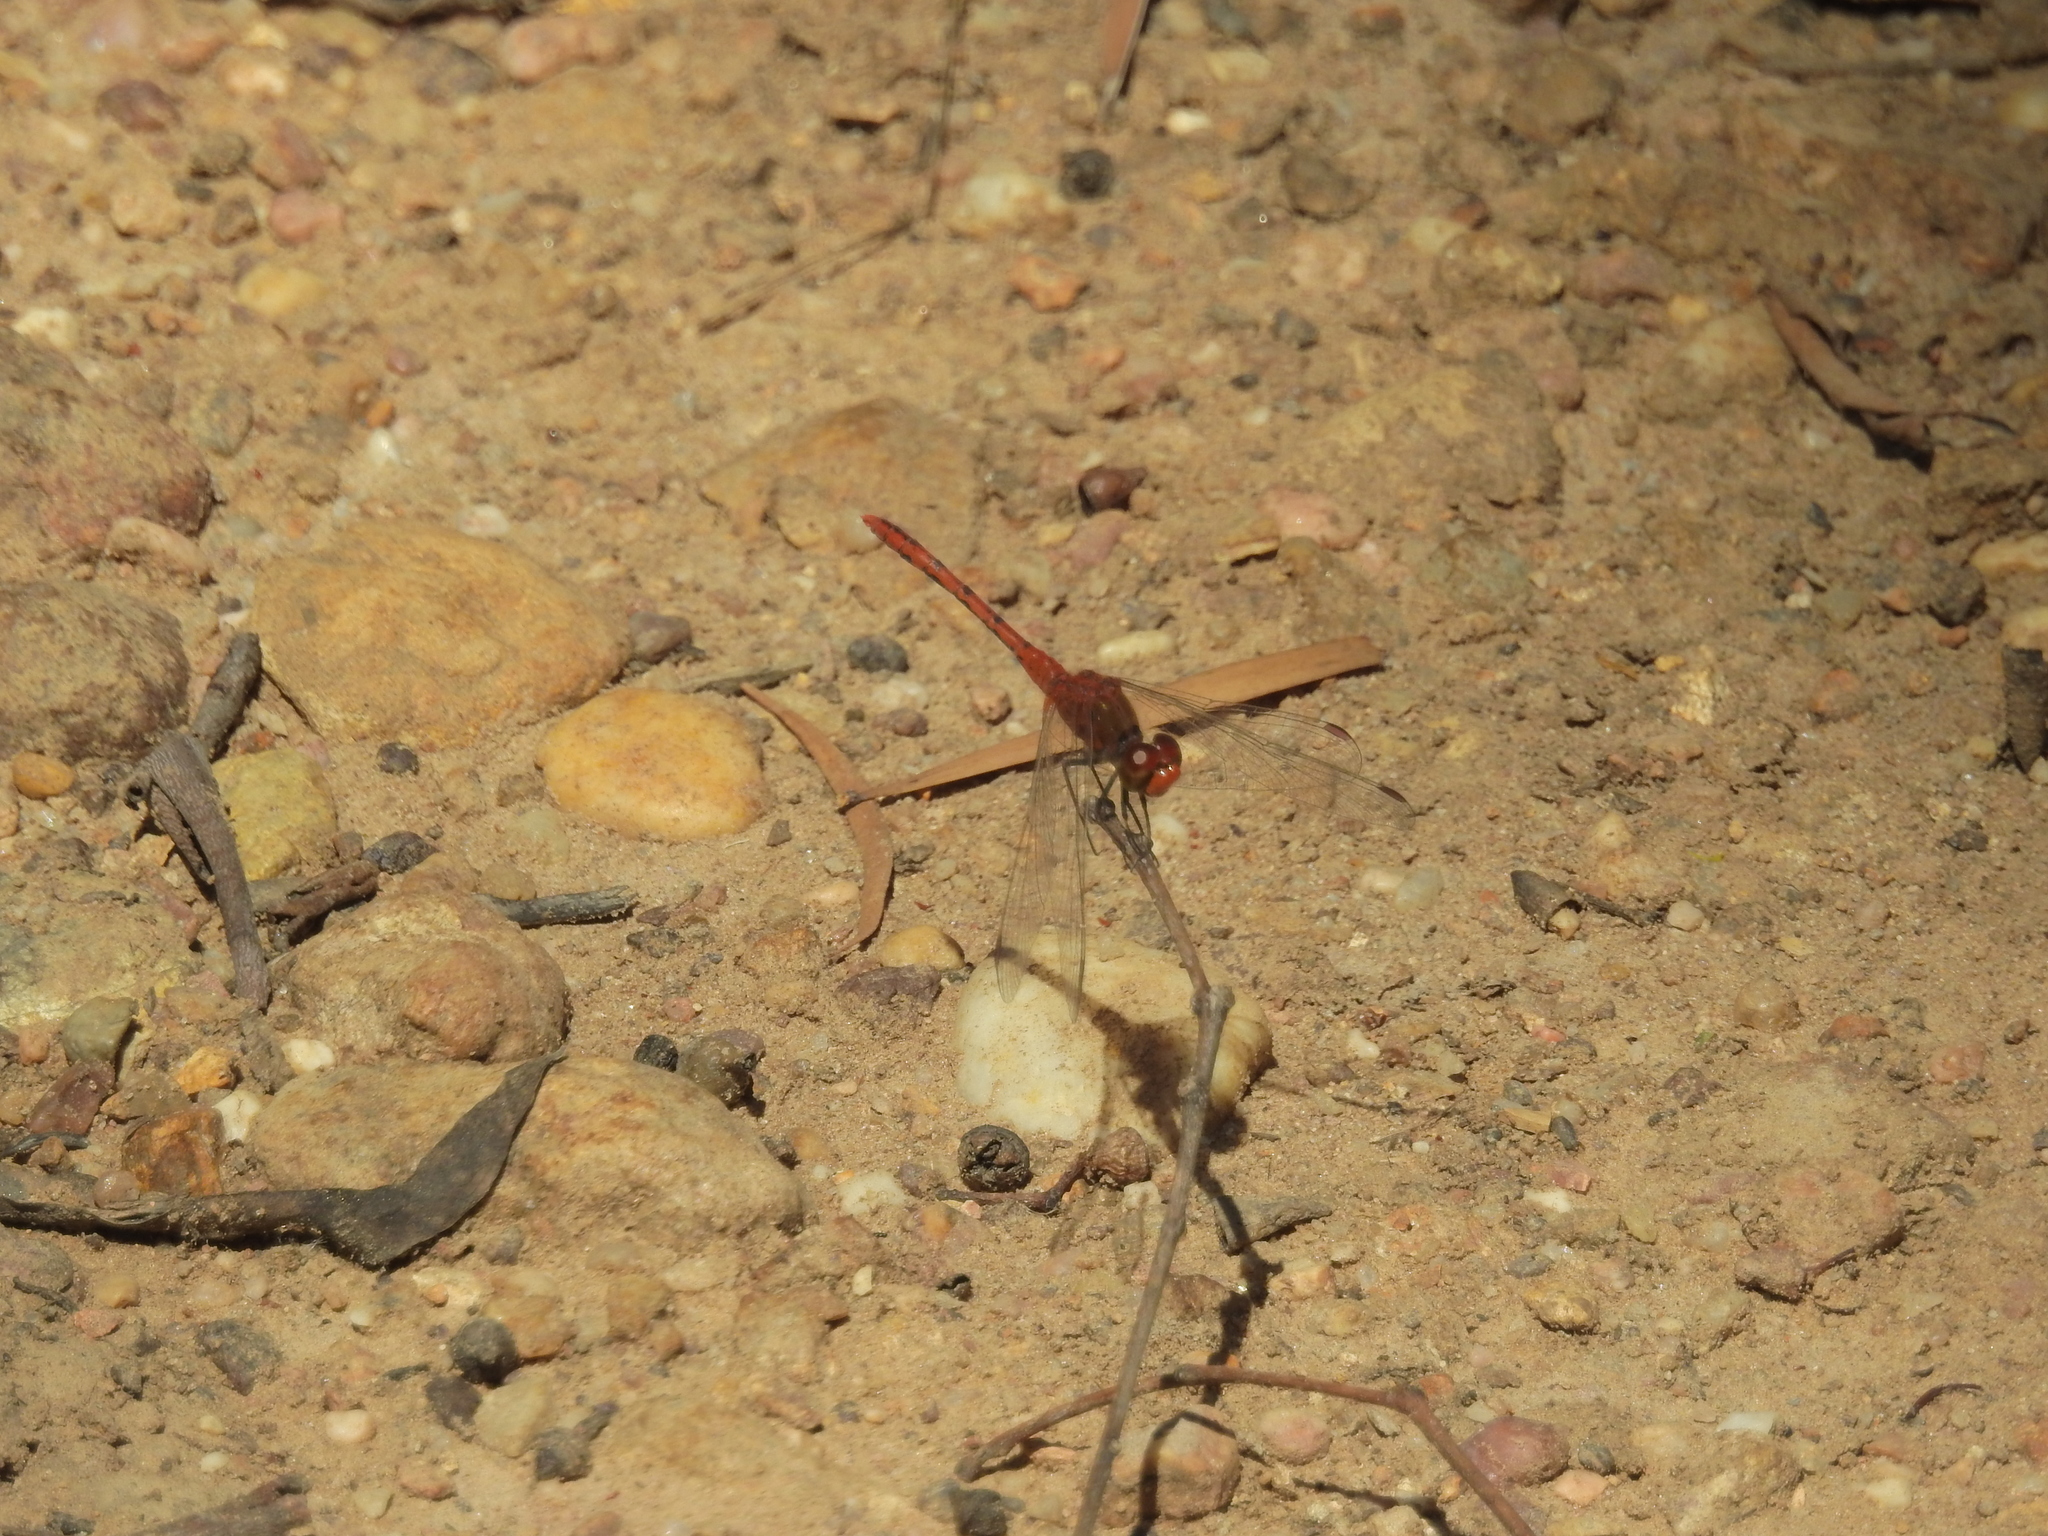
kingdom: Animalia
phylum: Arthropoda
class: Insecta
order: Odonata
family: Libellulidae
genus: Diplacodes
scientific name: Diplacodes bipunctata
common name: Red percher dragonfly
